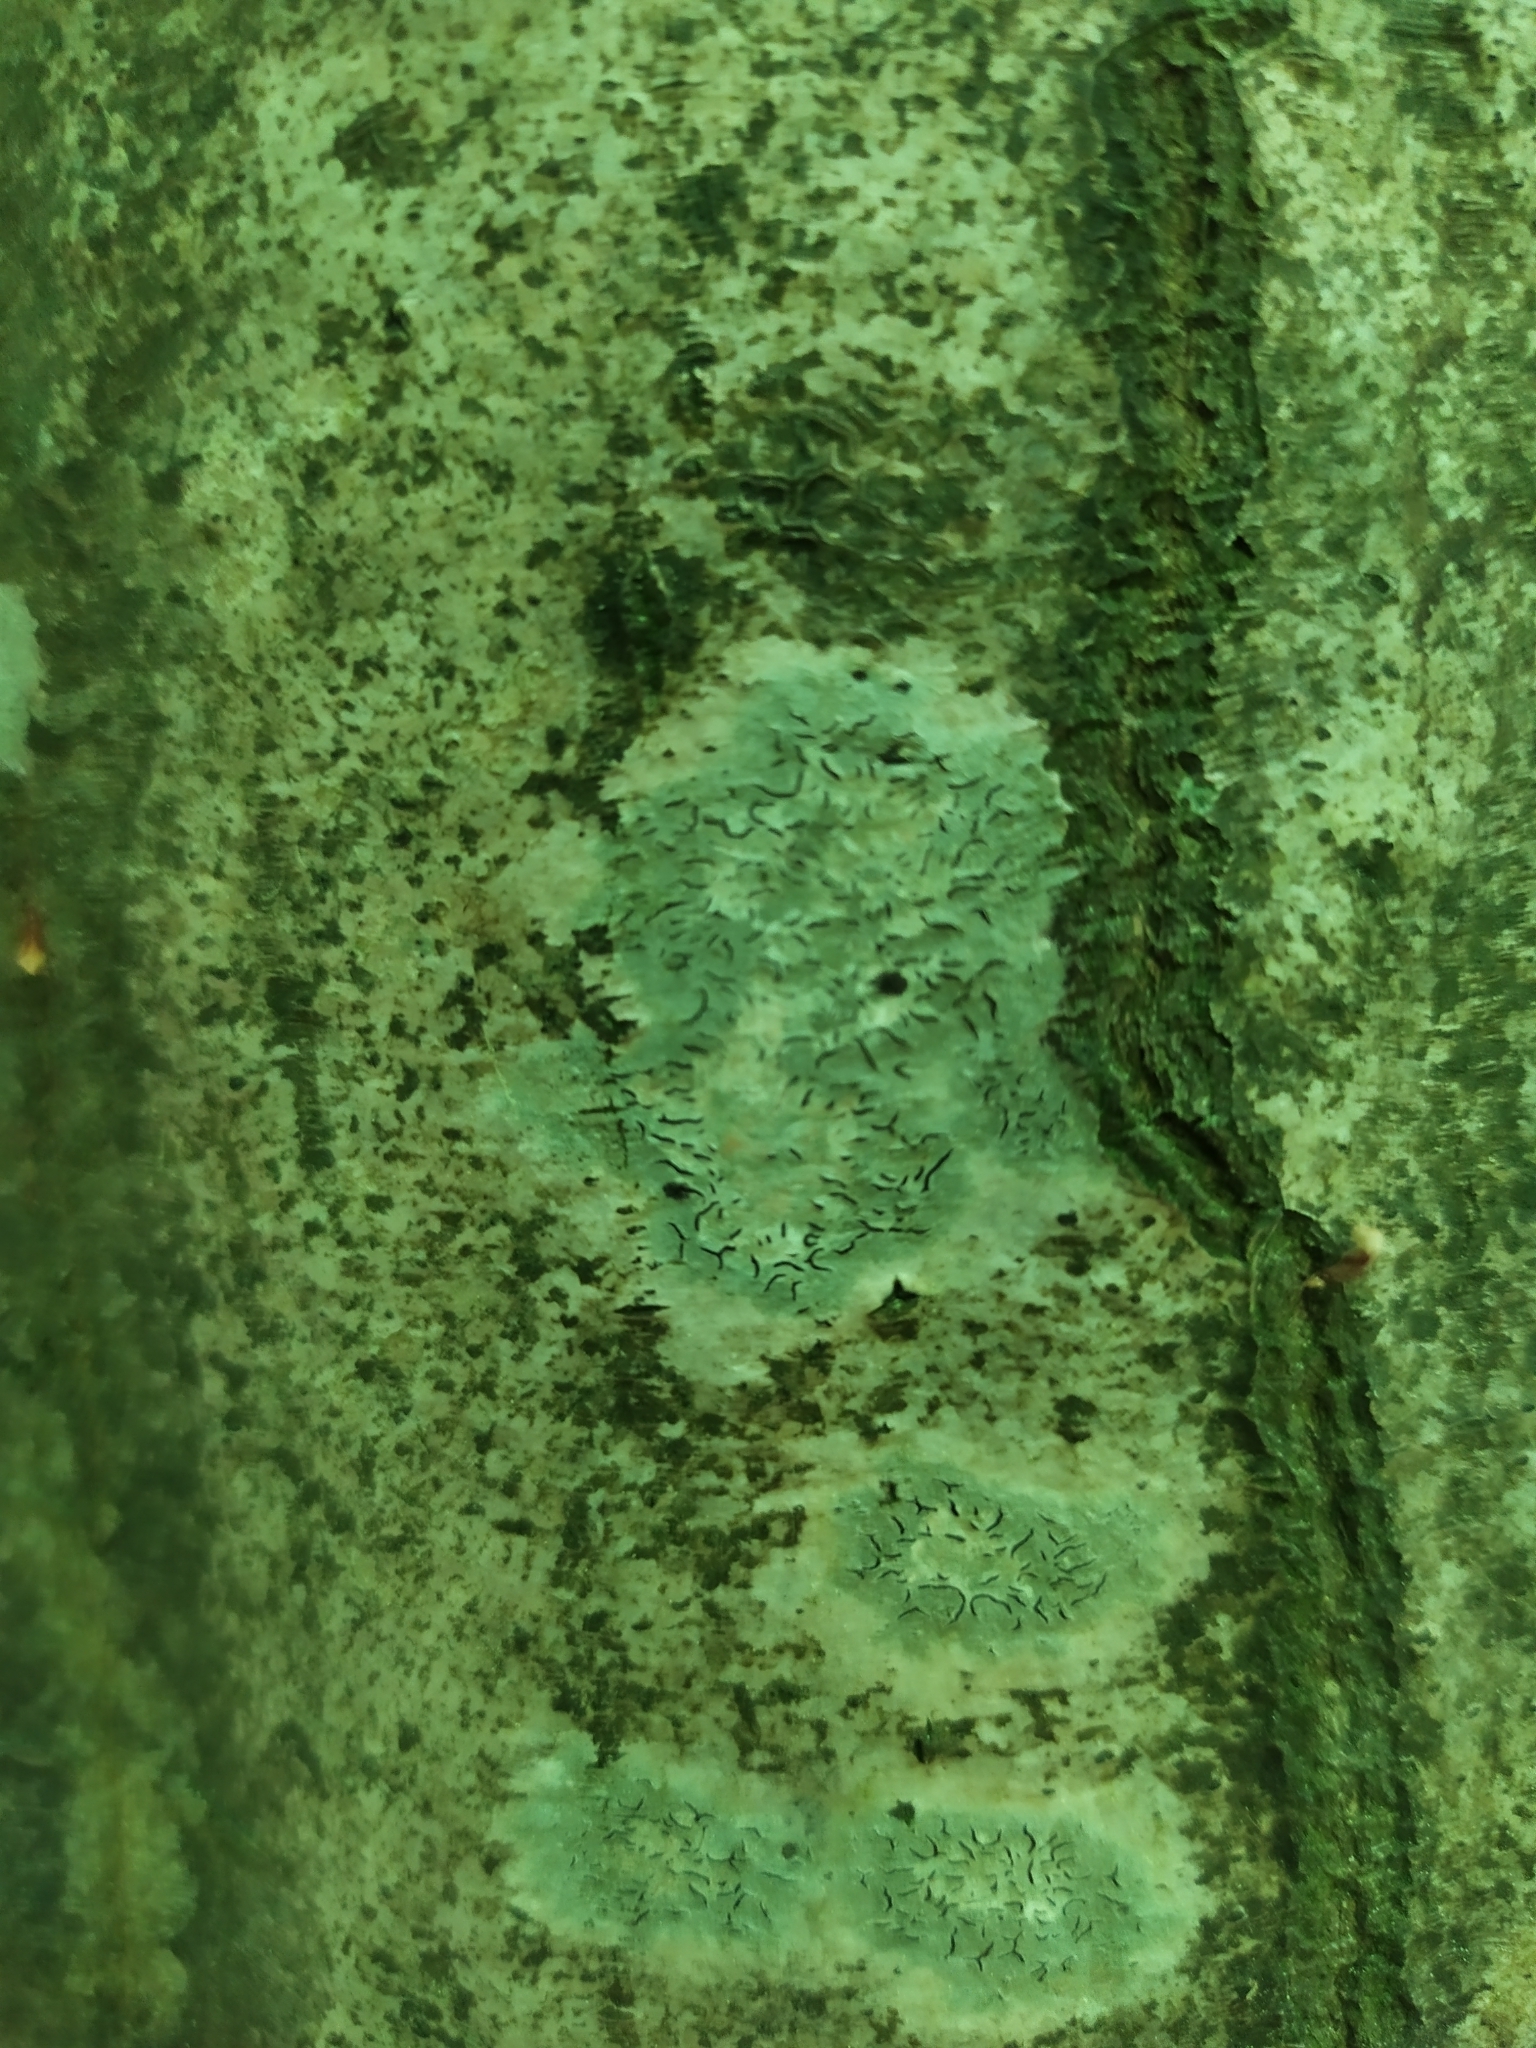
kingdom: Fungi
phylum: Ascomycota
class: Lecanoromycetes
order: Ostropales
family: Graphidaceae
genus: Graphis
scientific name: Graphis scripta
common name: Script lichen
